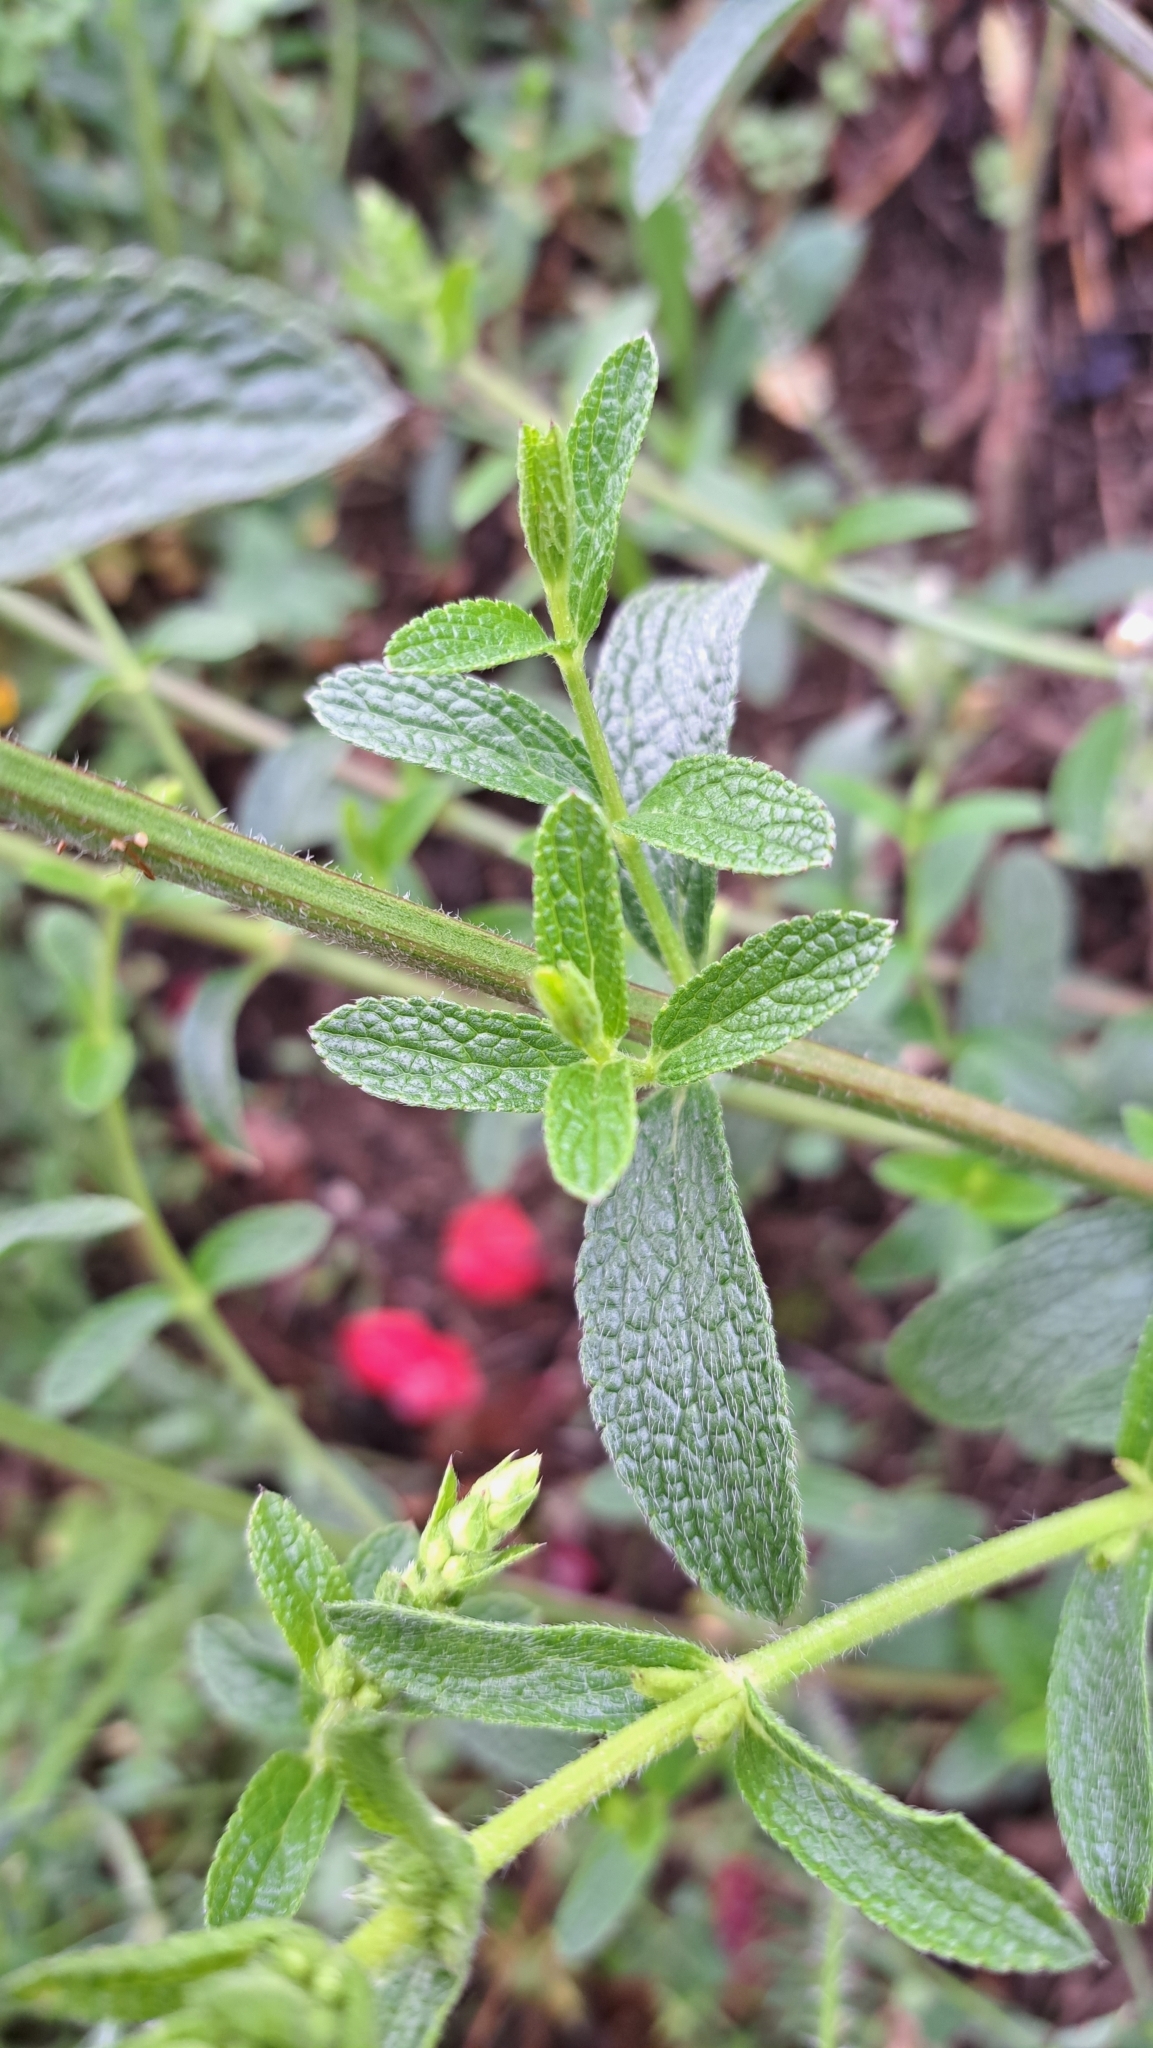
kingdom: Plantae
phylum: Tracheophyta
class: Magnoliopsida
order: Lamiales
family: Lamiaceae
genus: Stachys
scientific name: Stachys recta
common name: Perennial yellow-woundwort
